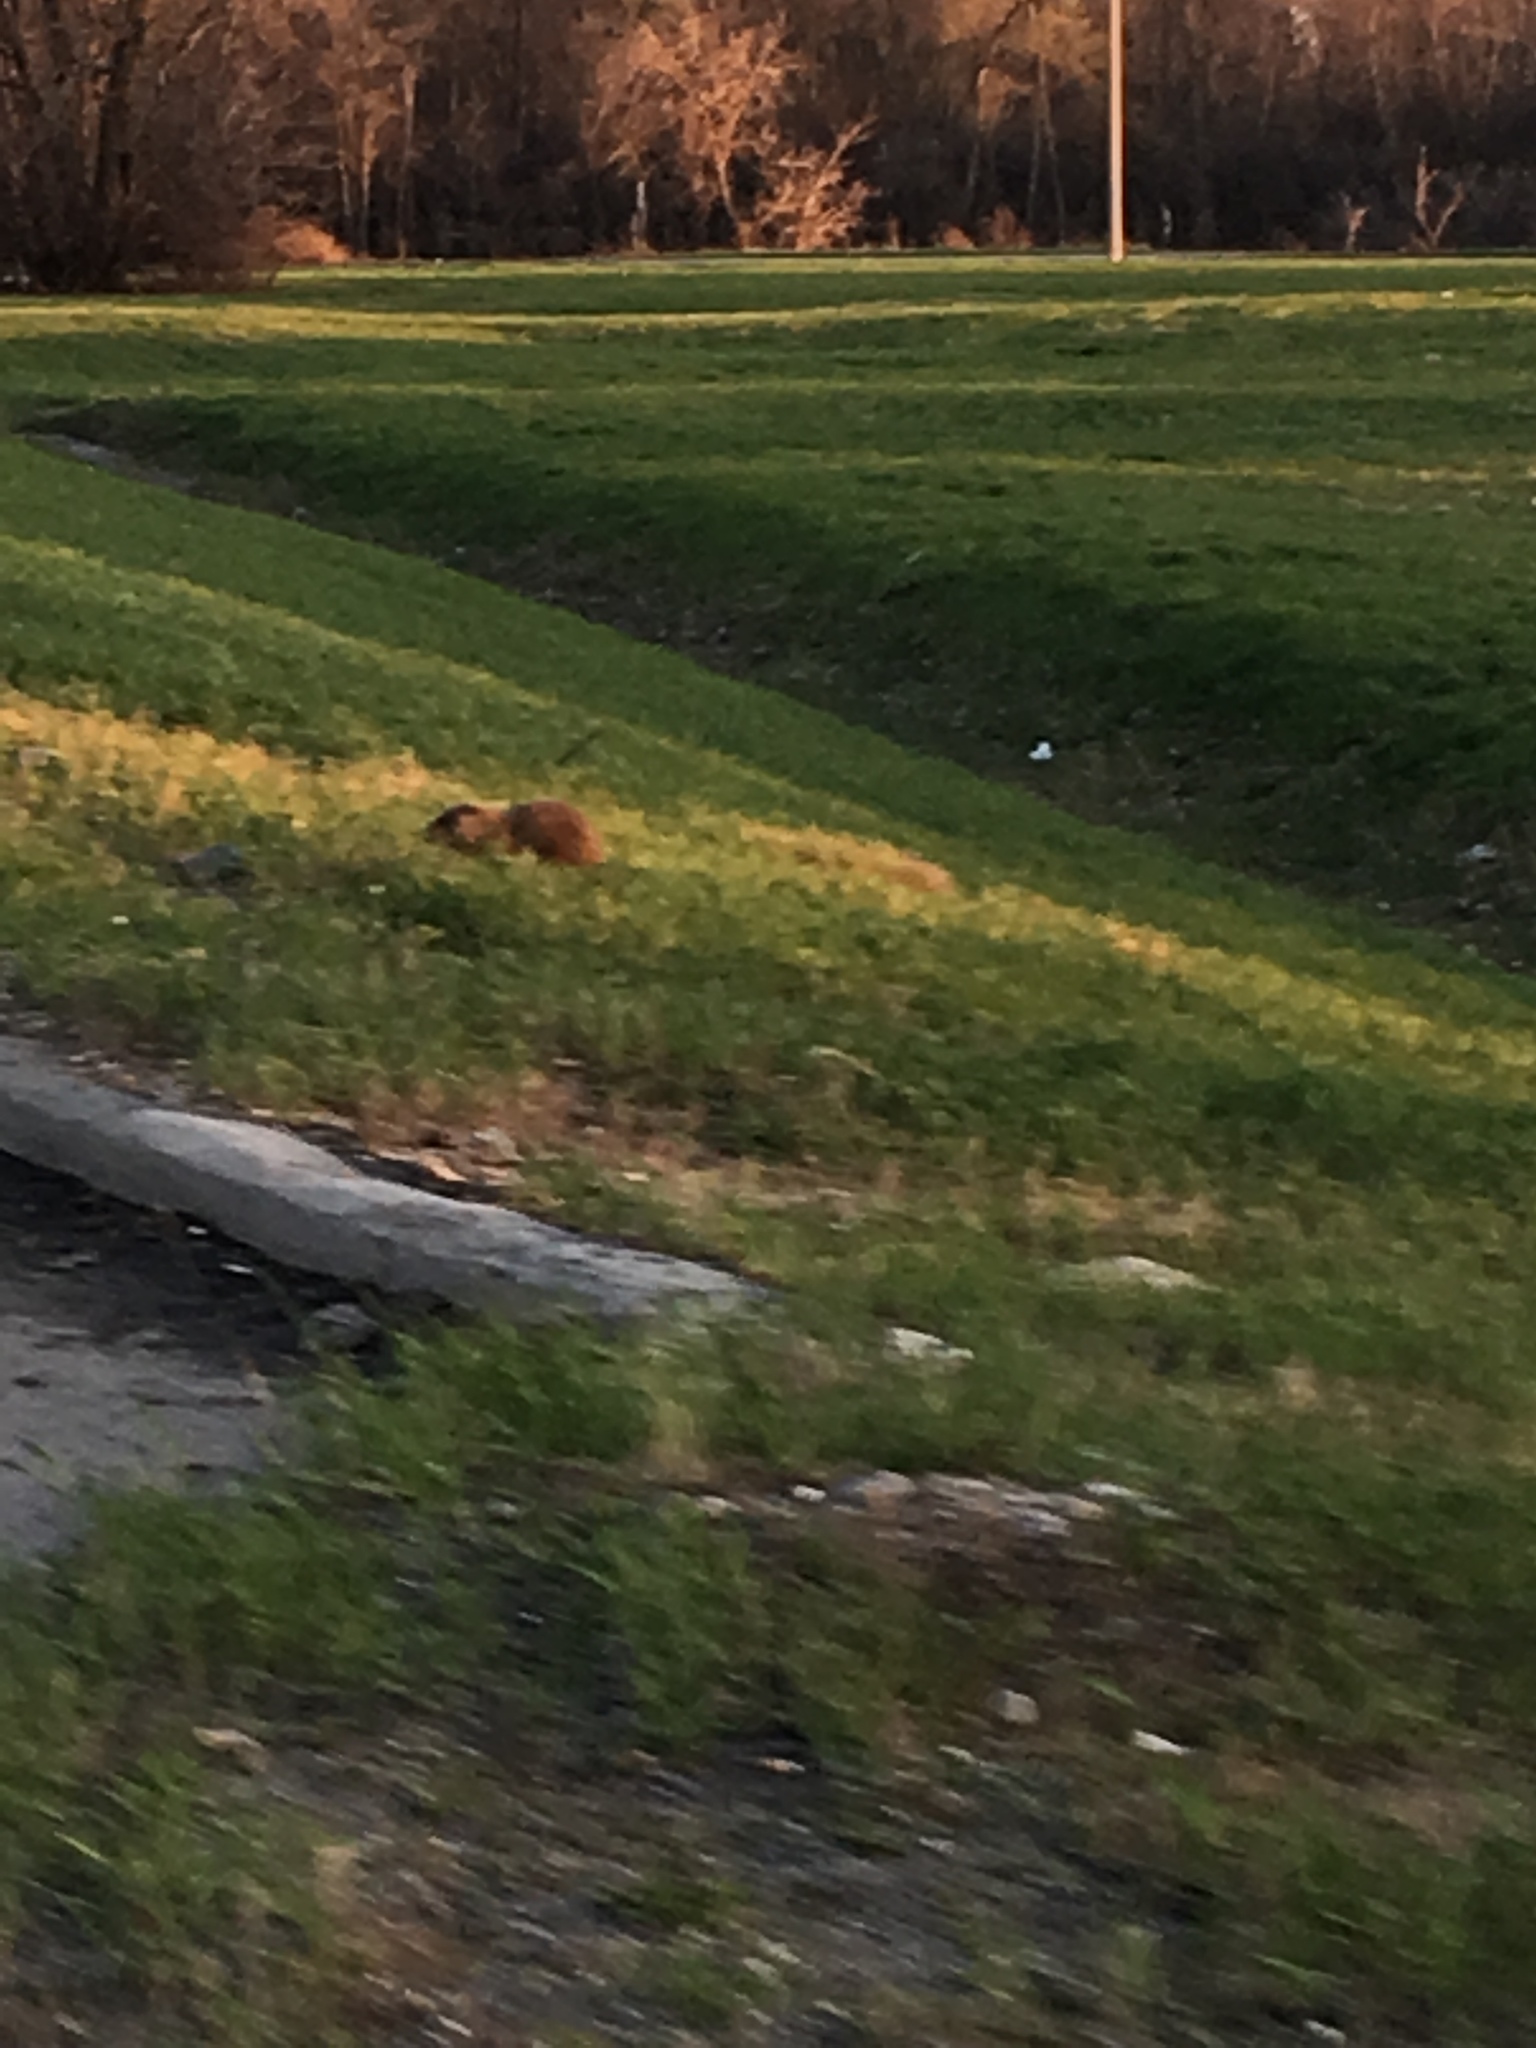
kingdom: Animalia
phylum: Chordata
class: Mammalia
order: Rodentia
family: Sciuridae
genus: Marmota
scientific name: Marmota monax
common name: Groundhog
